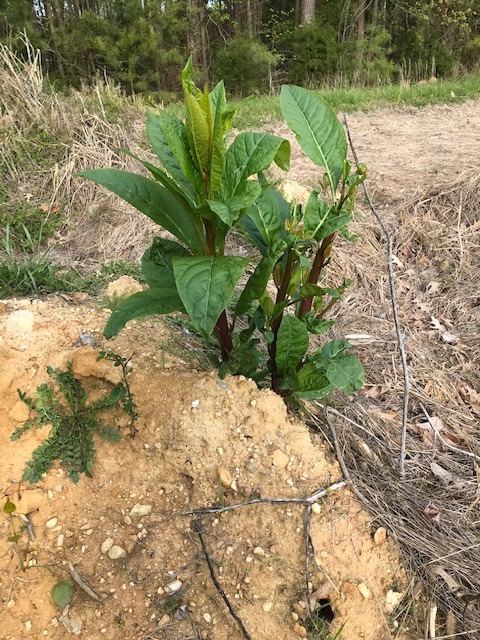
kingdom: Plantae
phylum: Tracheophyta
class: Magnoliopsida
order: Caryophyllales
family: Phytolaccaceae
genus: Phytolacca
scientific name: Phytolacca americana
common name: American pokeweed
